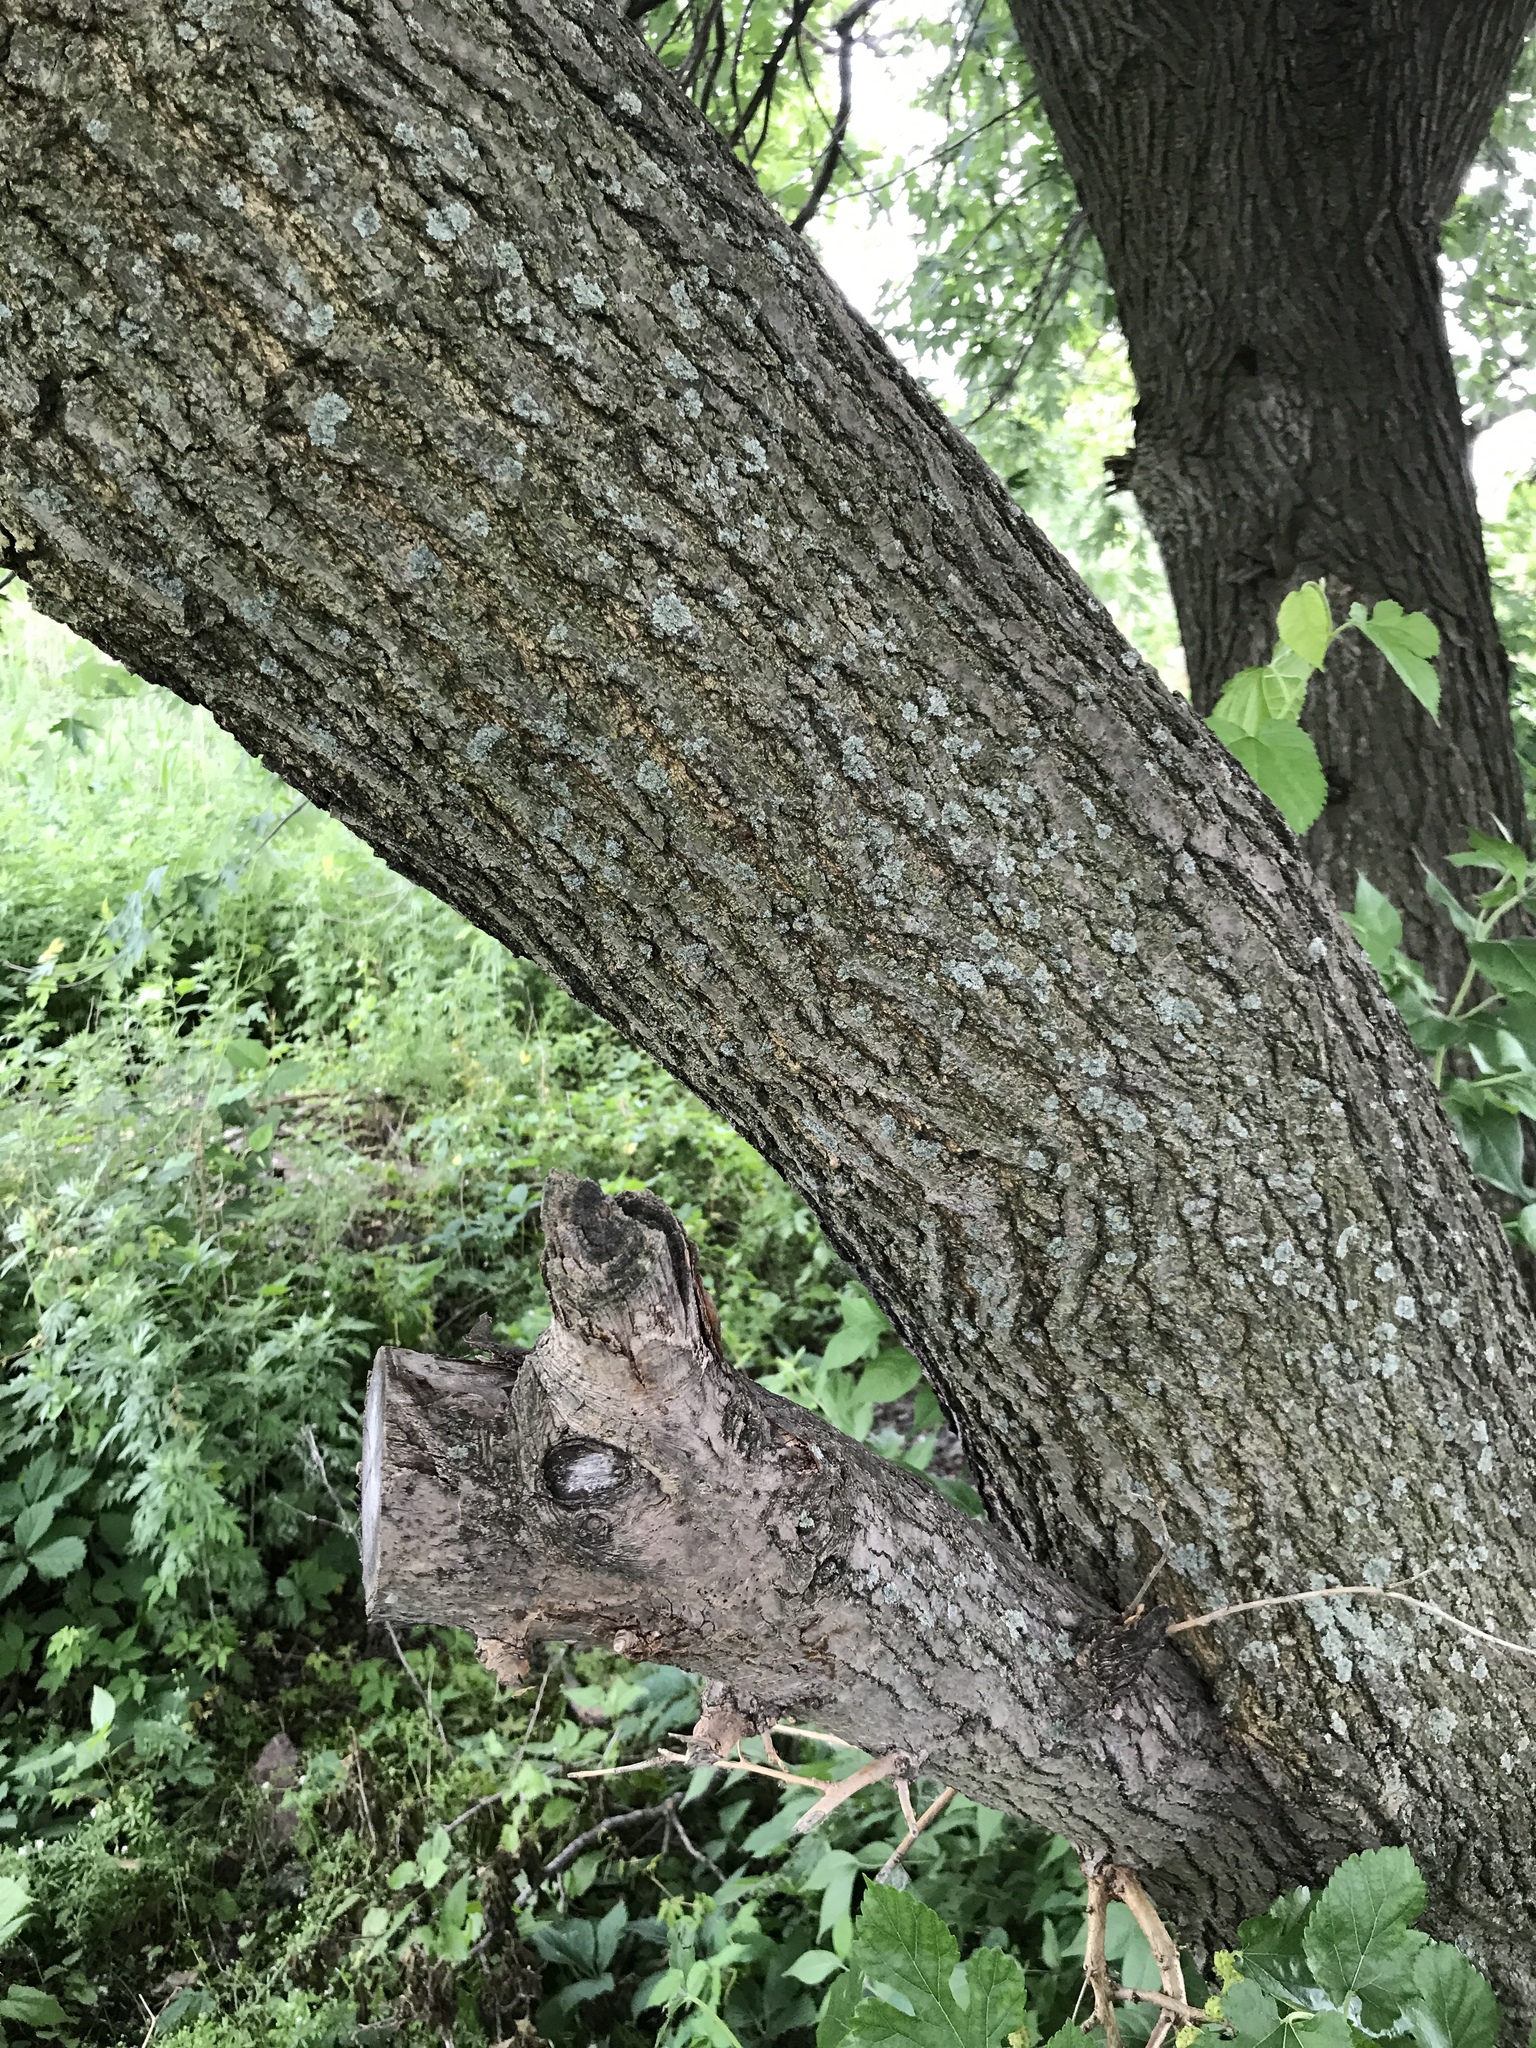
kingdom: Plantae
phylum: Tracheophyta
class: Magnoliopsida
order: Rosales
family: Moraceae
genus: Morus
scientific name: Morus alba
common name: White mulberry
